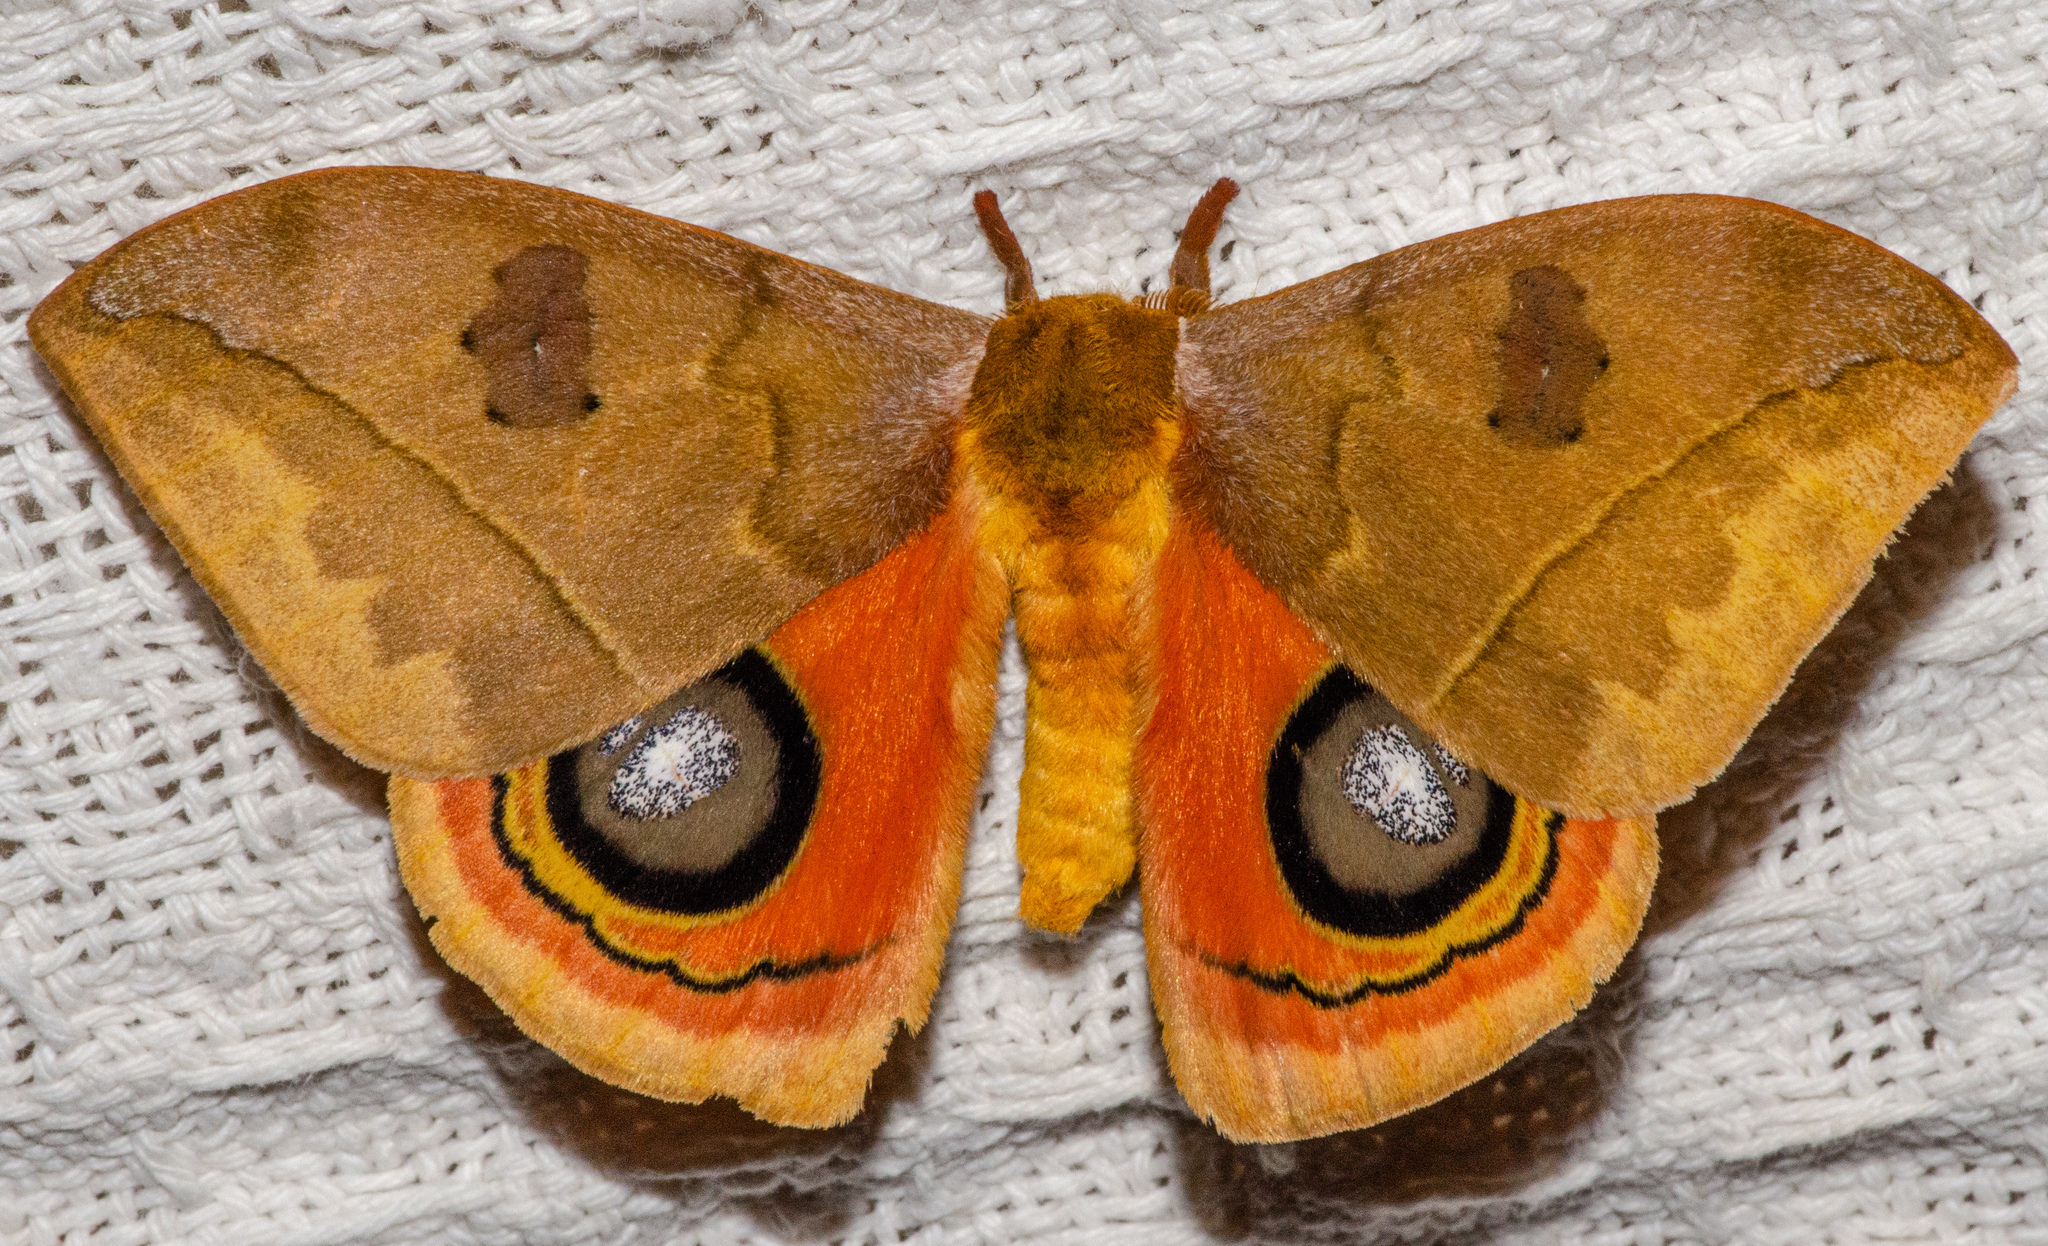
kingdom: Animalia
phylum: Arthropoda
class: Insecta
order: Lepidoptera
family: Saturniidae
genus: Automeris
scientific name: Automeris tridens
